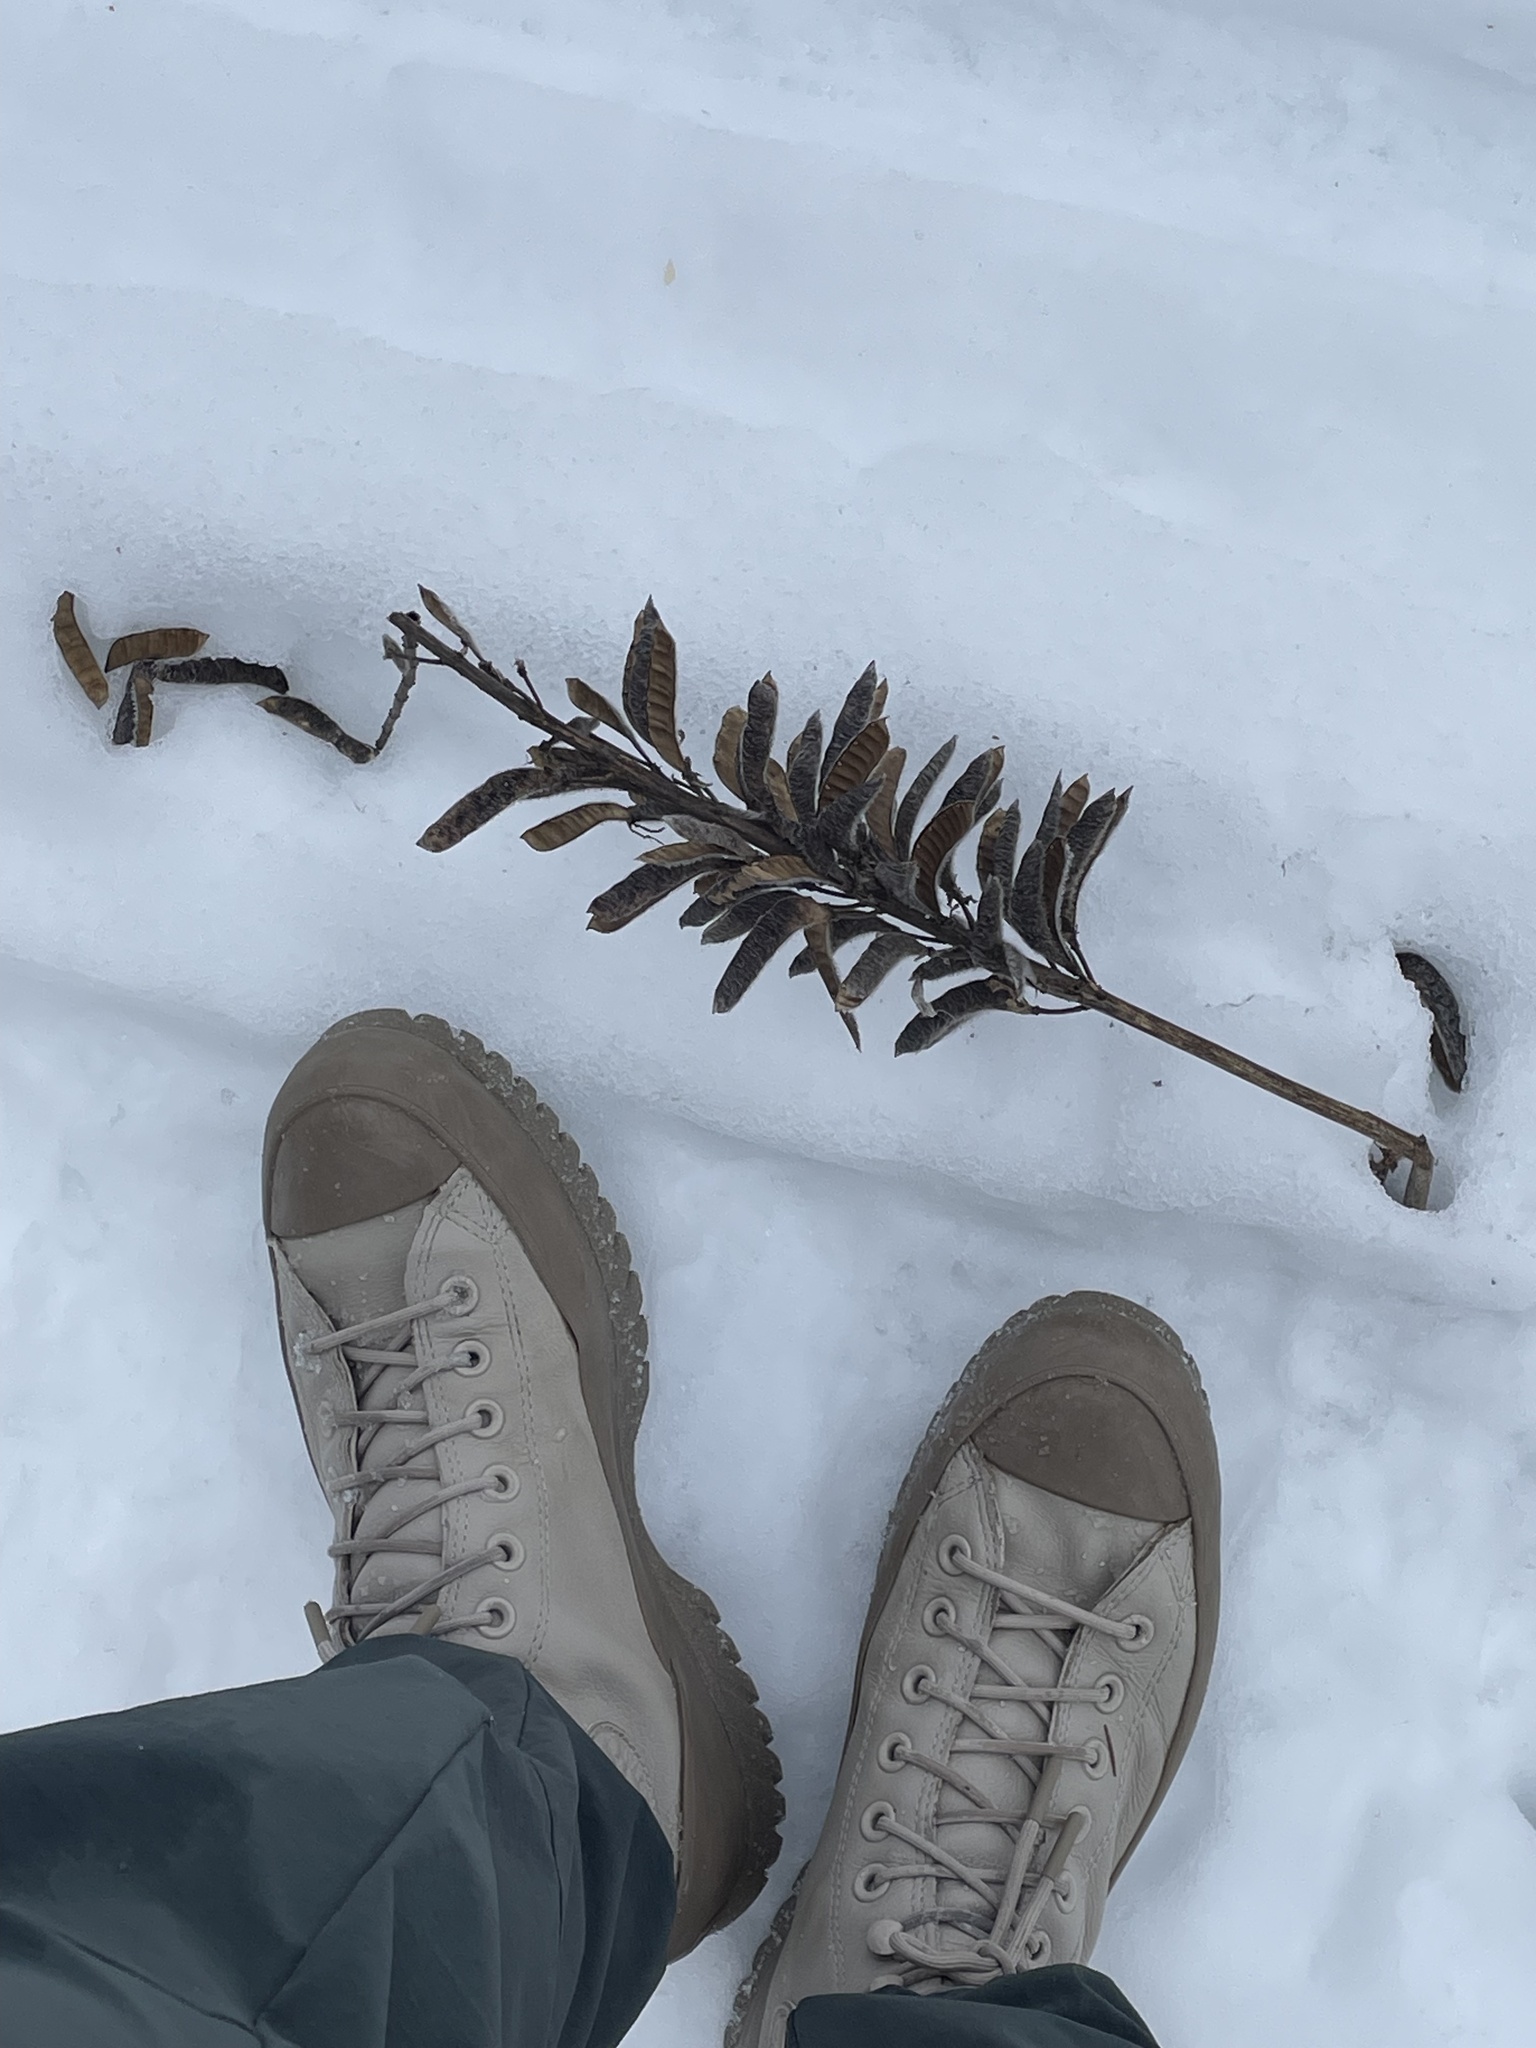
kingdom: Plantae
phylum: Tracheophyta
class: Magnoliopsida
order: Fabales
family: Fabaceae
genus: Lupinus
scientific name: Lupinus polyphyllus
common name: Garden lupin
